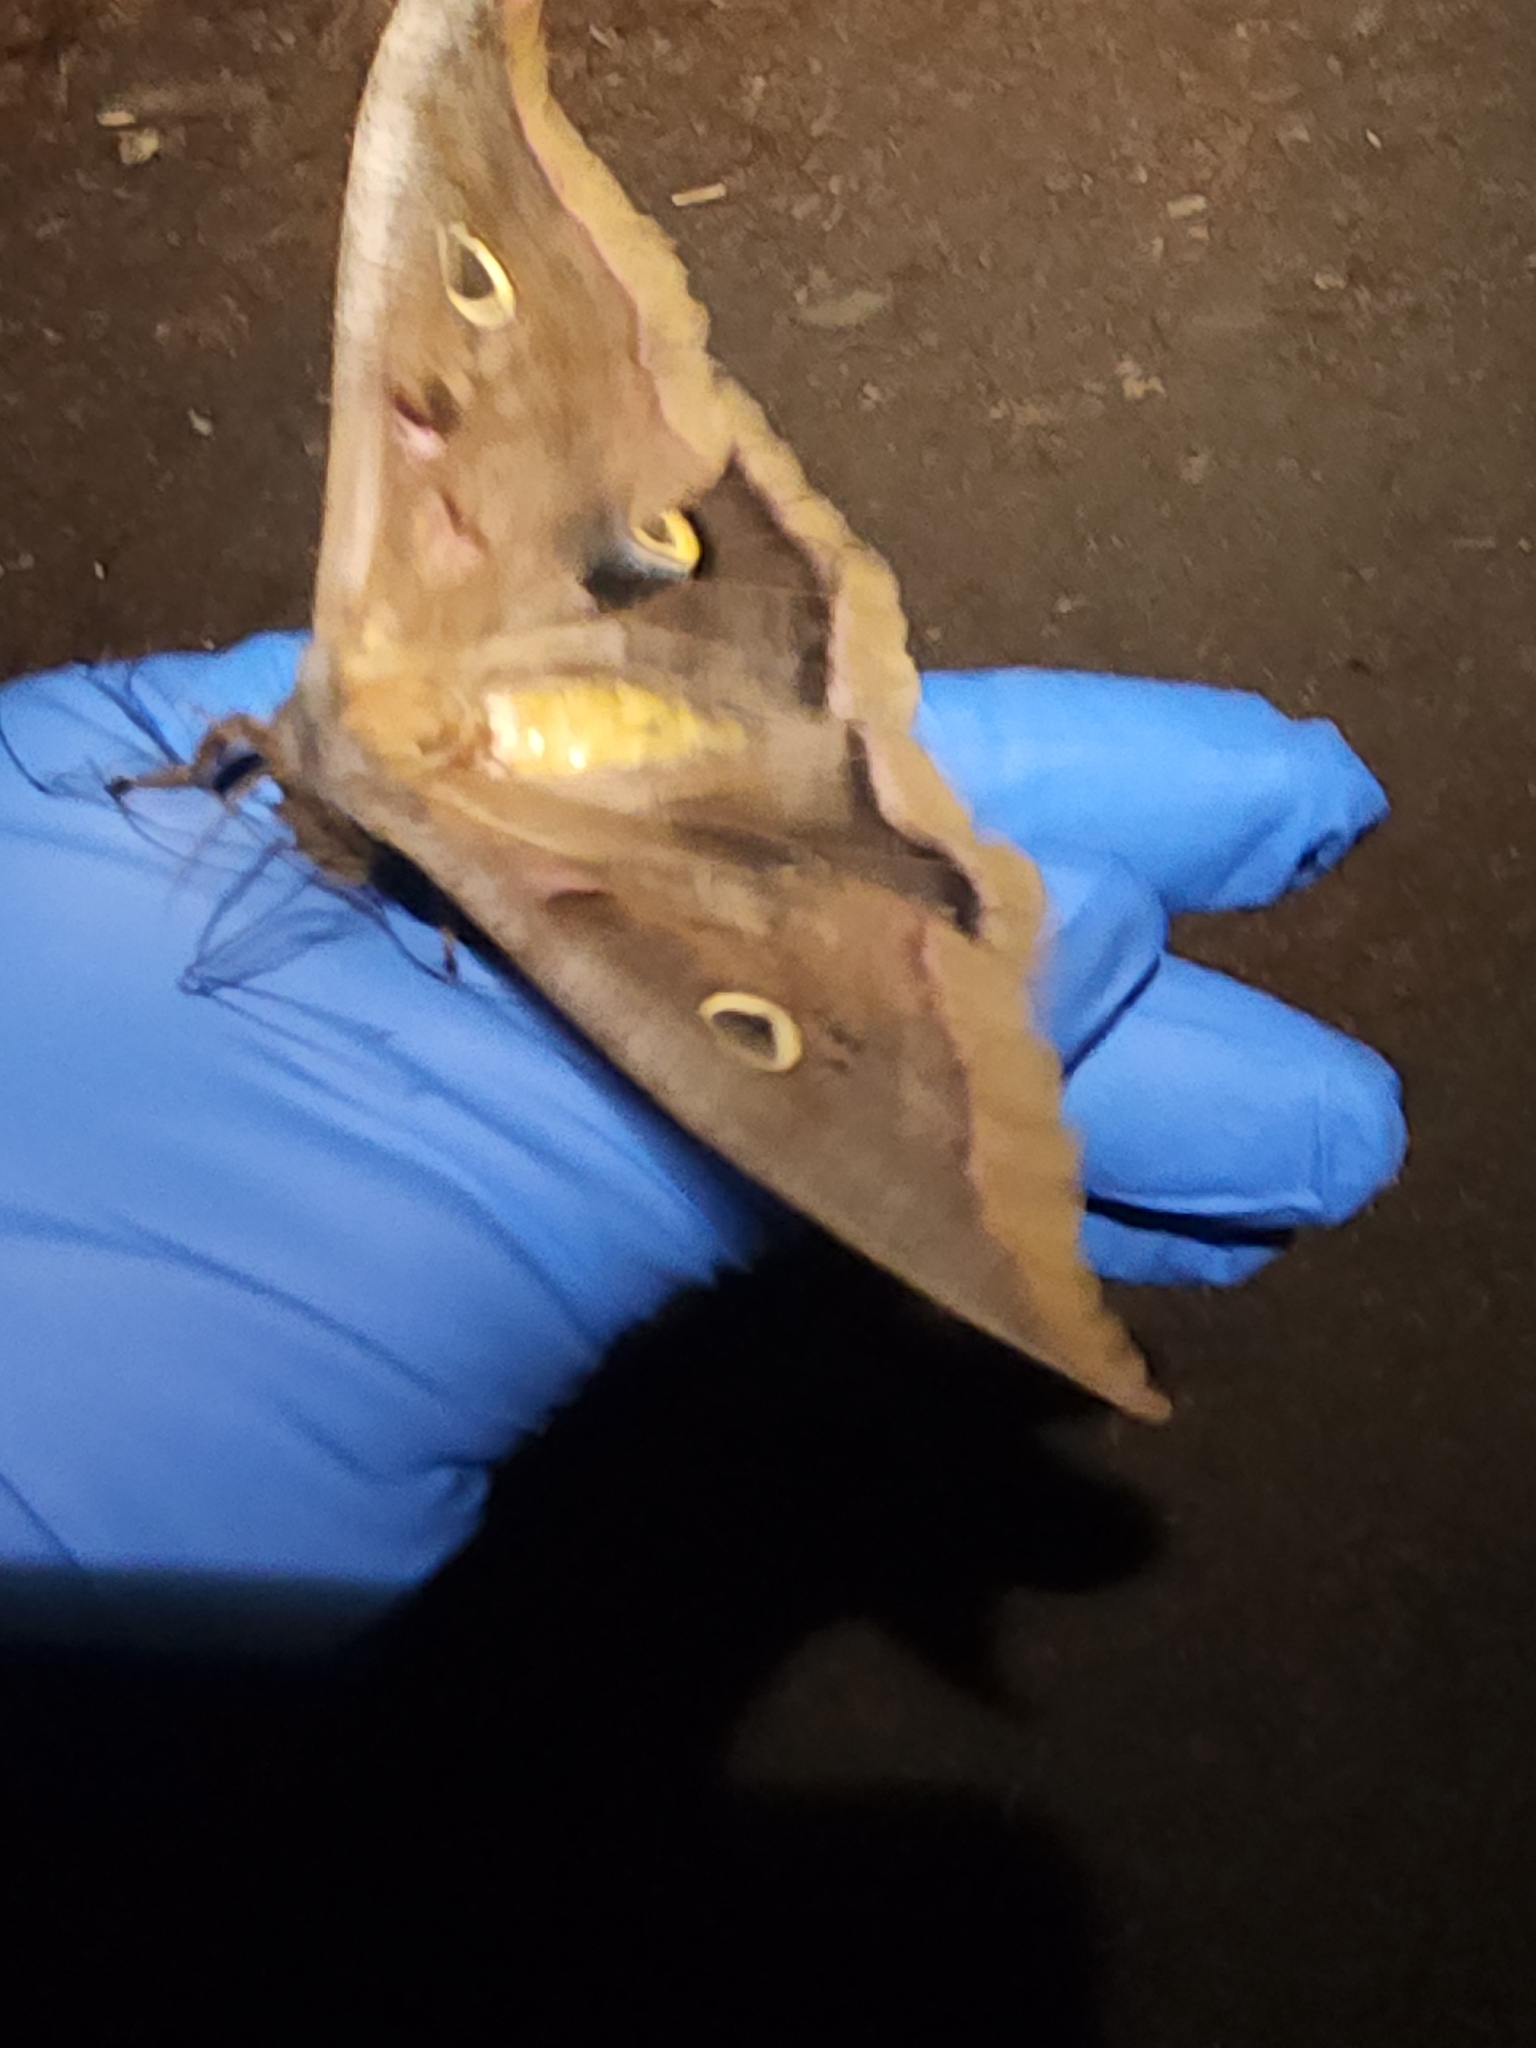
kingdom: Animalia
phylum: Arthropoda
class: Insecta
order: Lepidoptera
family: Saturniidae
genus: Antheraea
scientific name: Antheraea polyphemus
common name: Polyphemus moth
